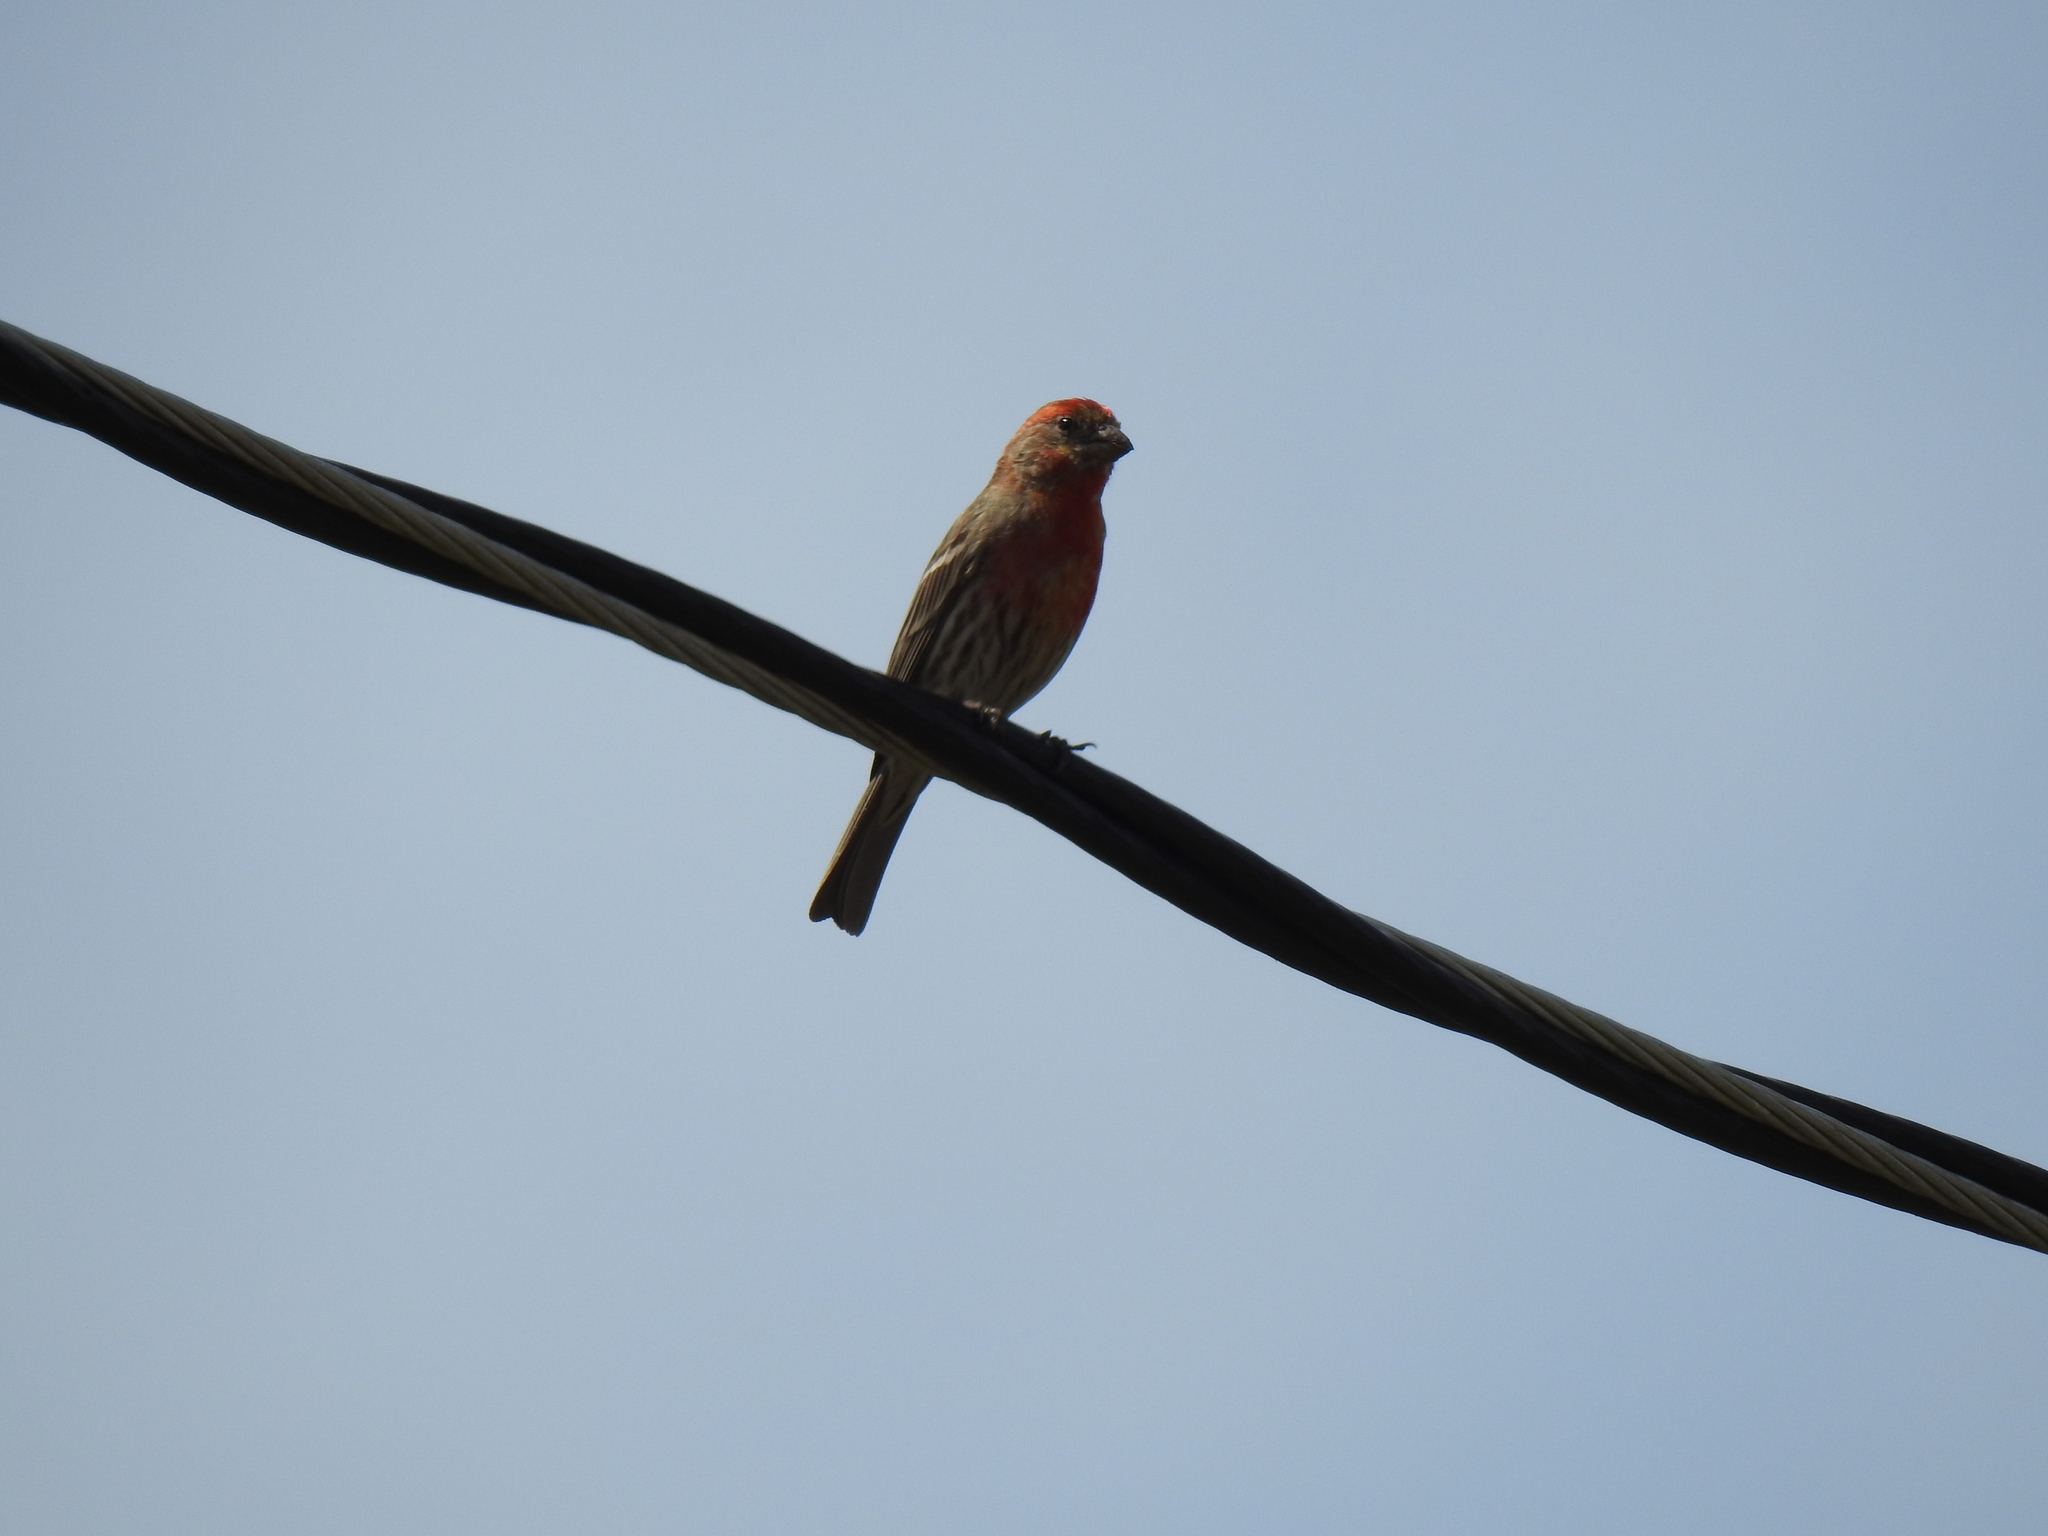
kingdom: Animalia
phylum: Chordata
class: Aves
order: Passeriformes
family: Fringillidae
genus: Haemorhous
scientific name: Haemorhous mexicanus
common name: House finch
